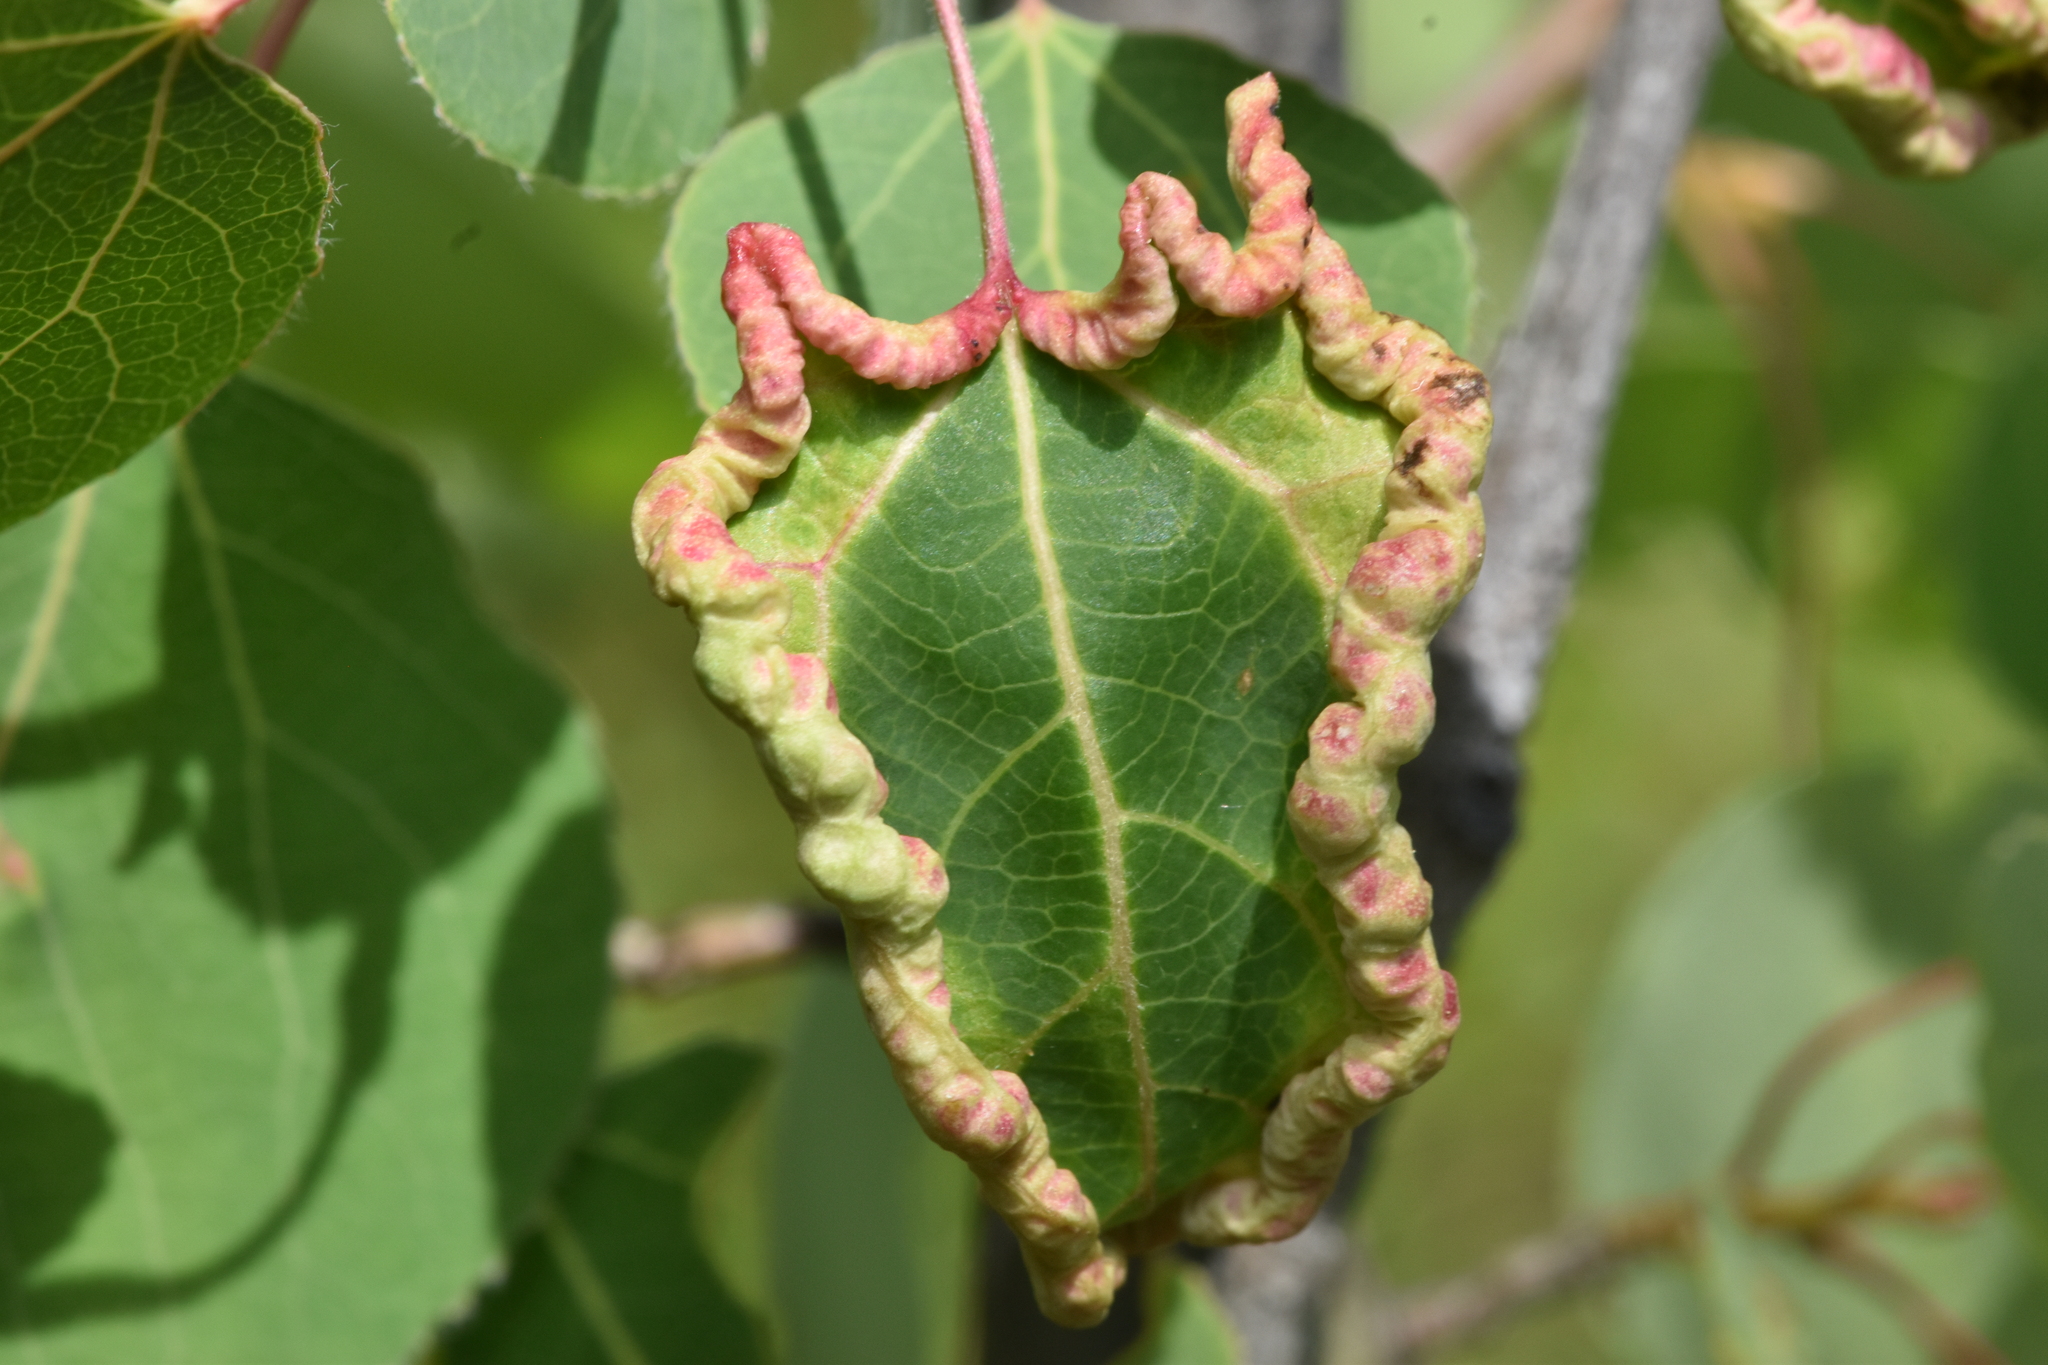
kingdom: Animalia
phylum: Arthropoda
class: Insecta
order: Diptera
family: Cecidomyiidae
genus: Prodiplosis
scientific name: Prodiplosis morrisi
